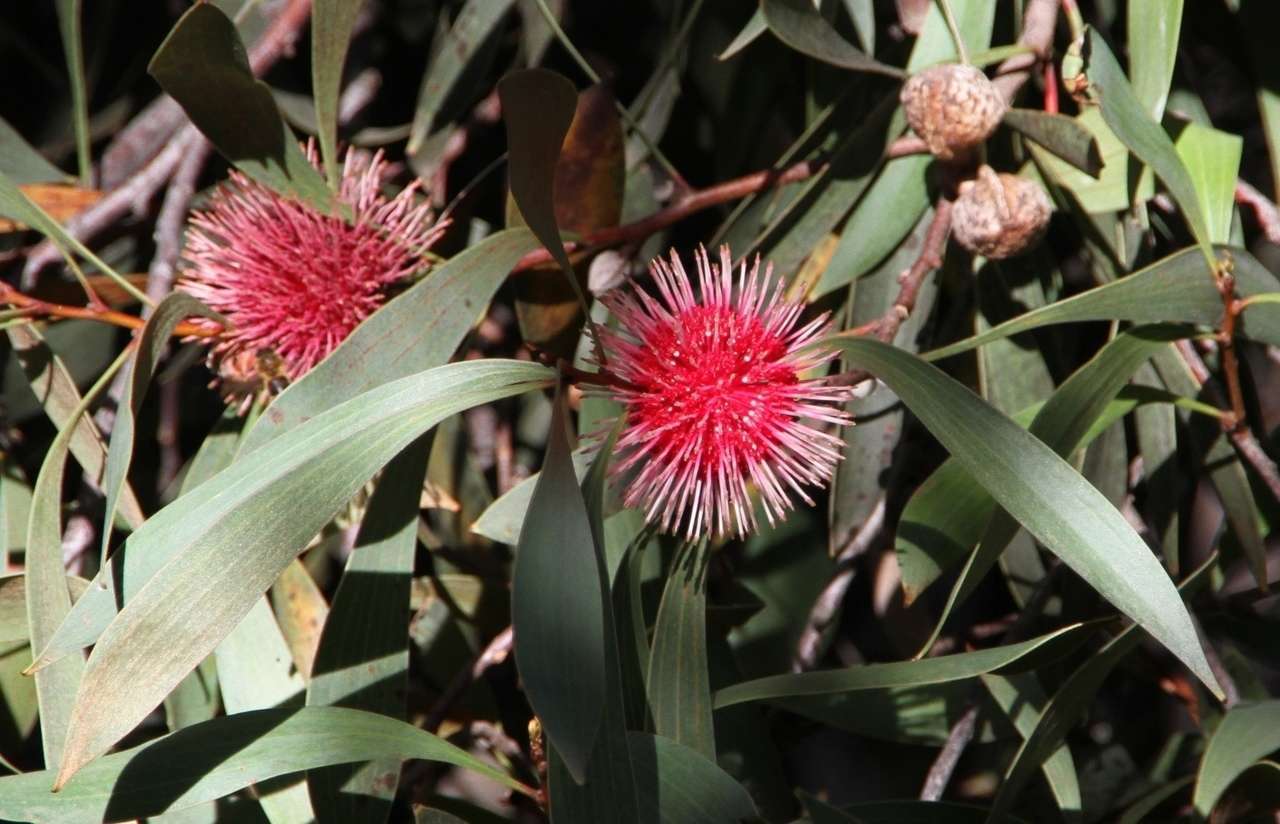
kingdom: Plantae
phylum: Tracheophyta
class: Magnoliopsida
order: Proteales
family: Proteaceae
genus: Hakea
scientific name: Hakea laurina
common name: Cushion hakea
